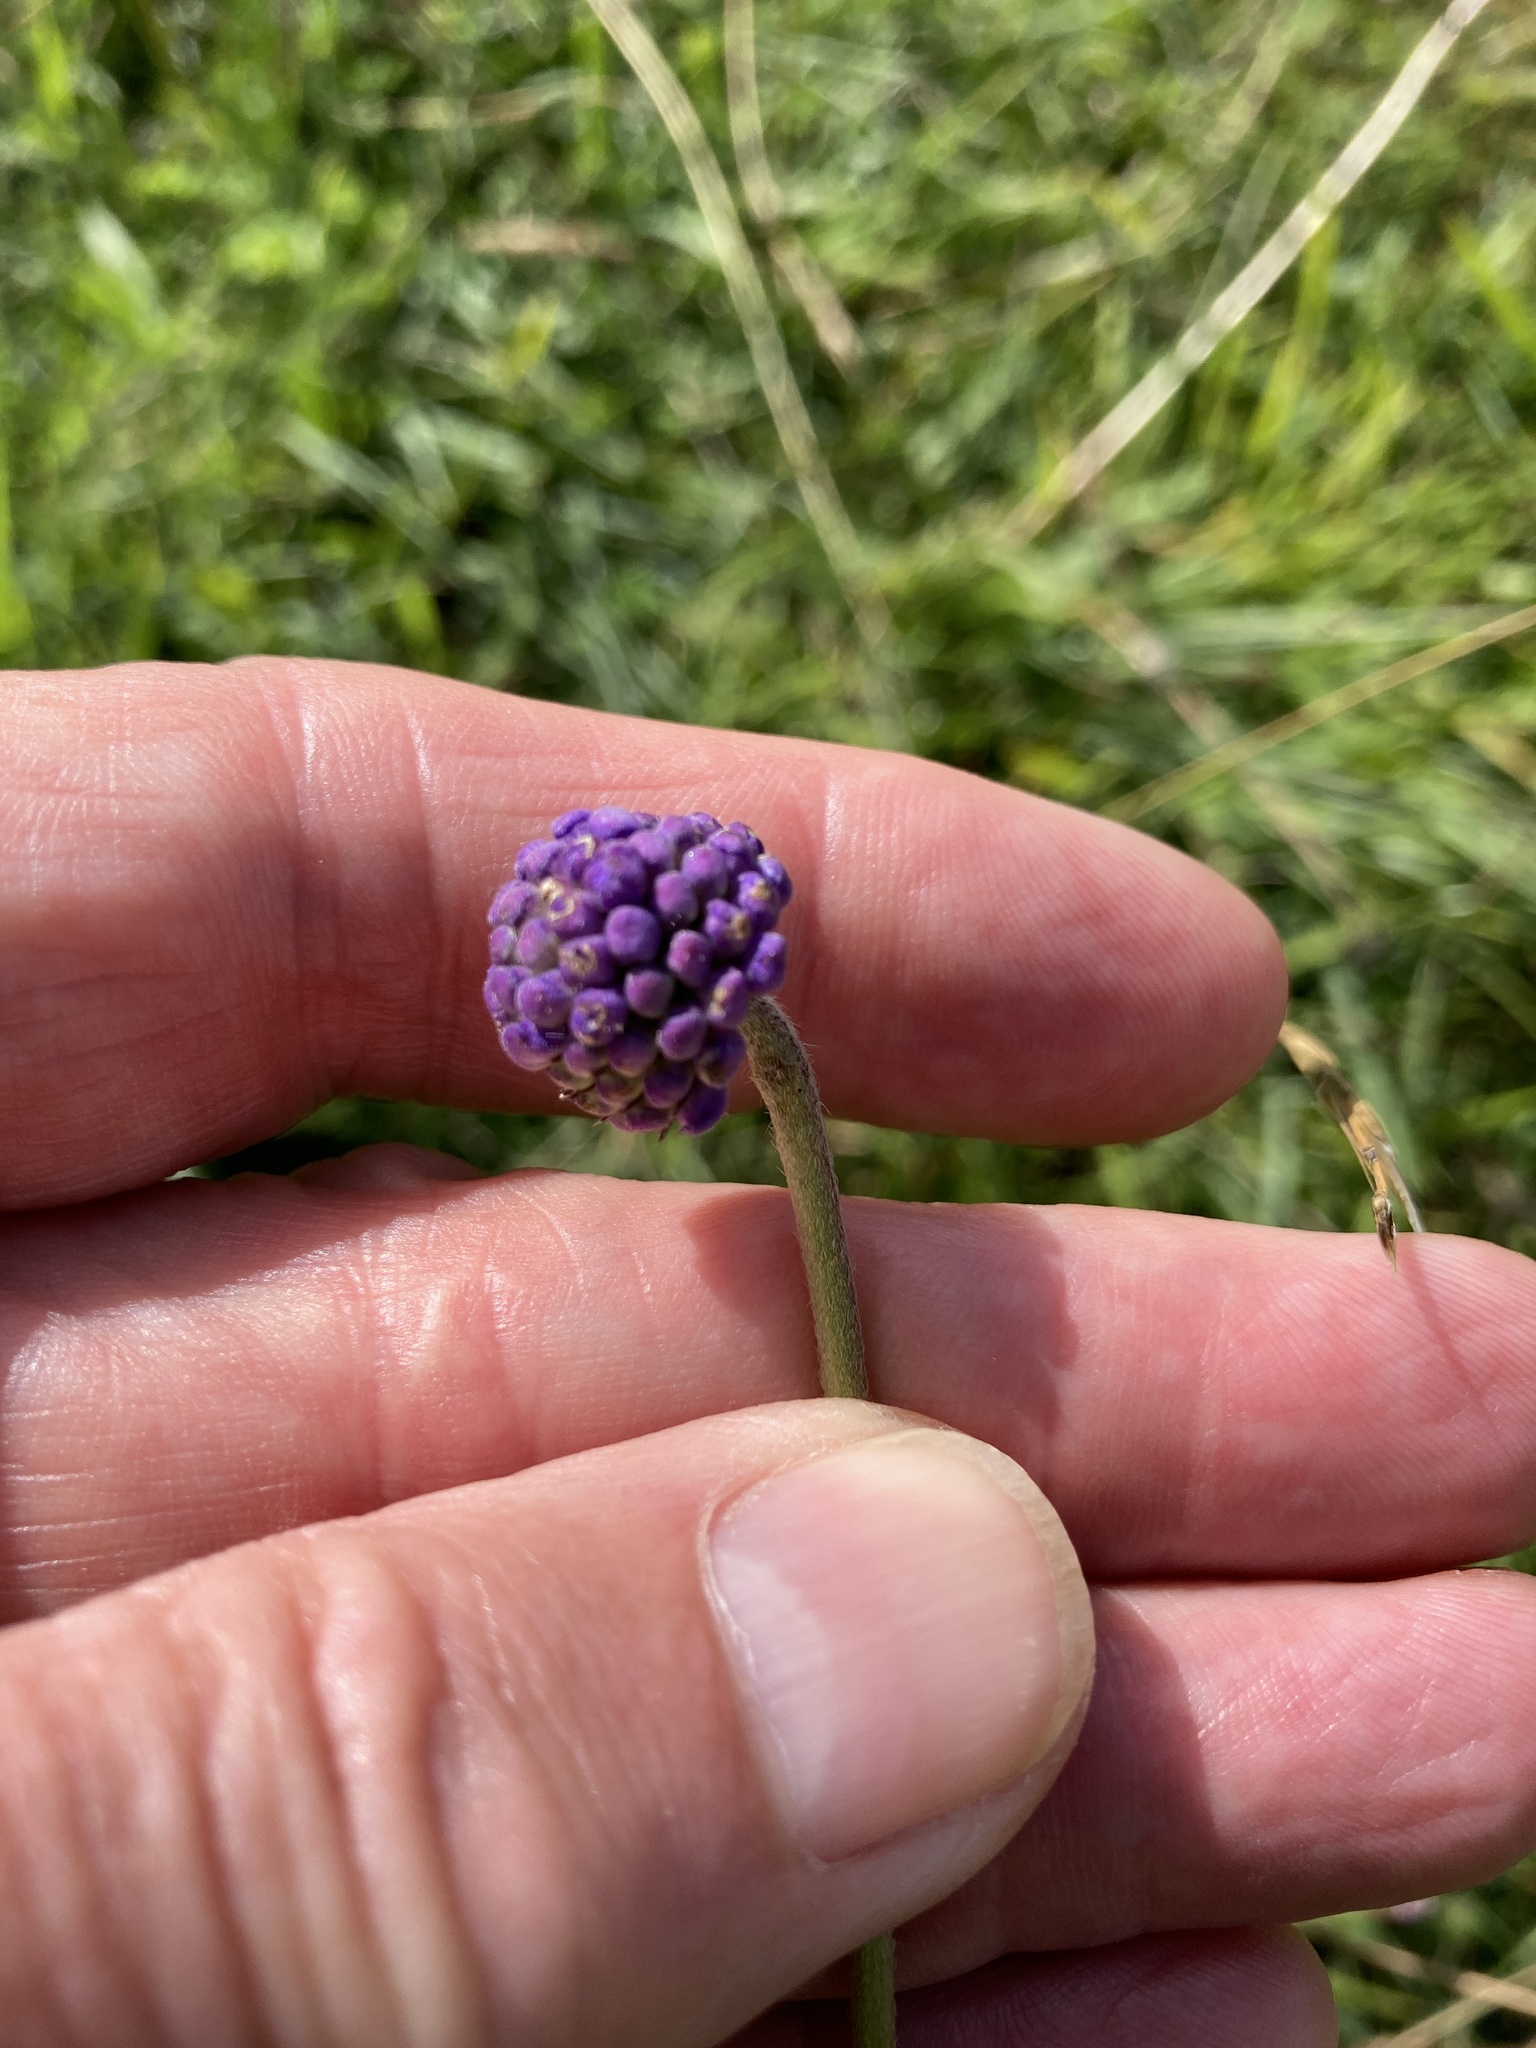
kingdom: Plantae
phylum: Tracheophyta
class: Magnoliopsida
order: Dipsacales
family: Caprifoliaceae
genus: Succisa
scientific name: Succisa pratensis
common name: Devil's-bit
